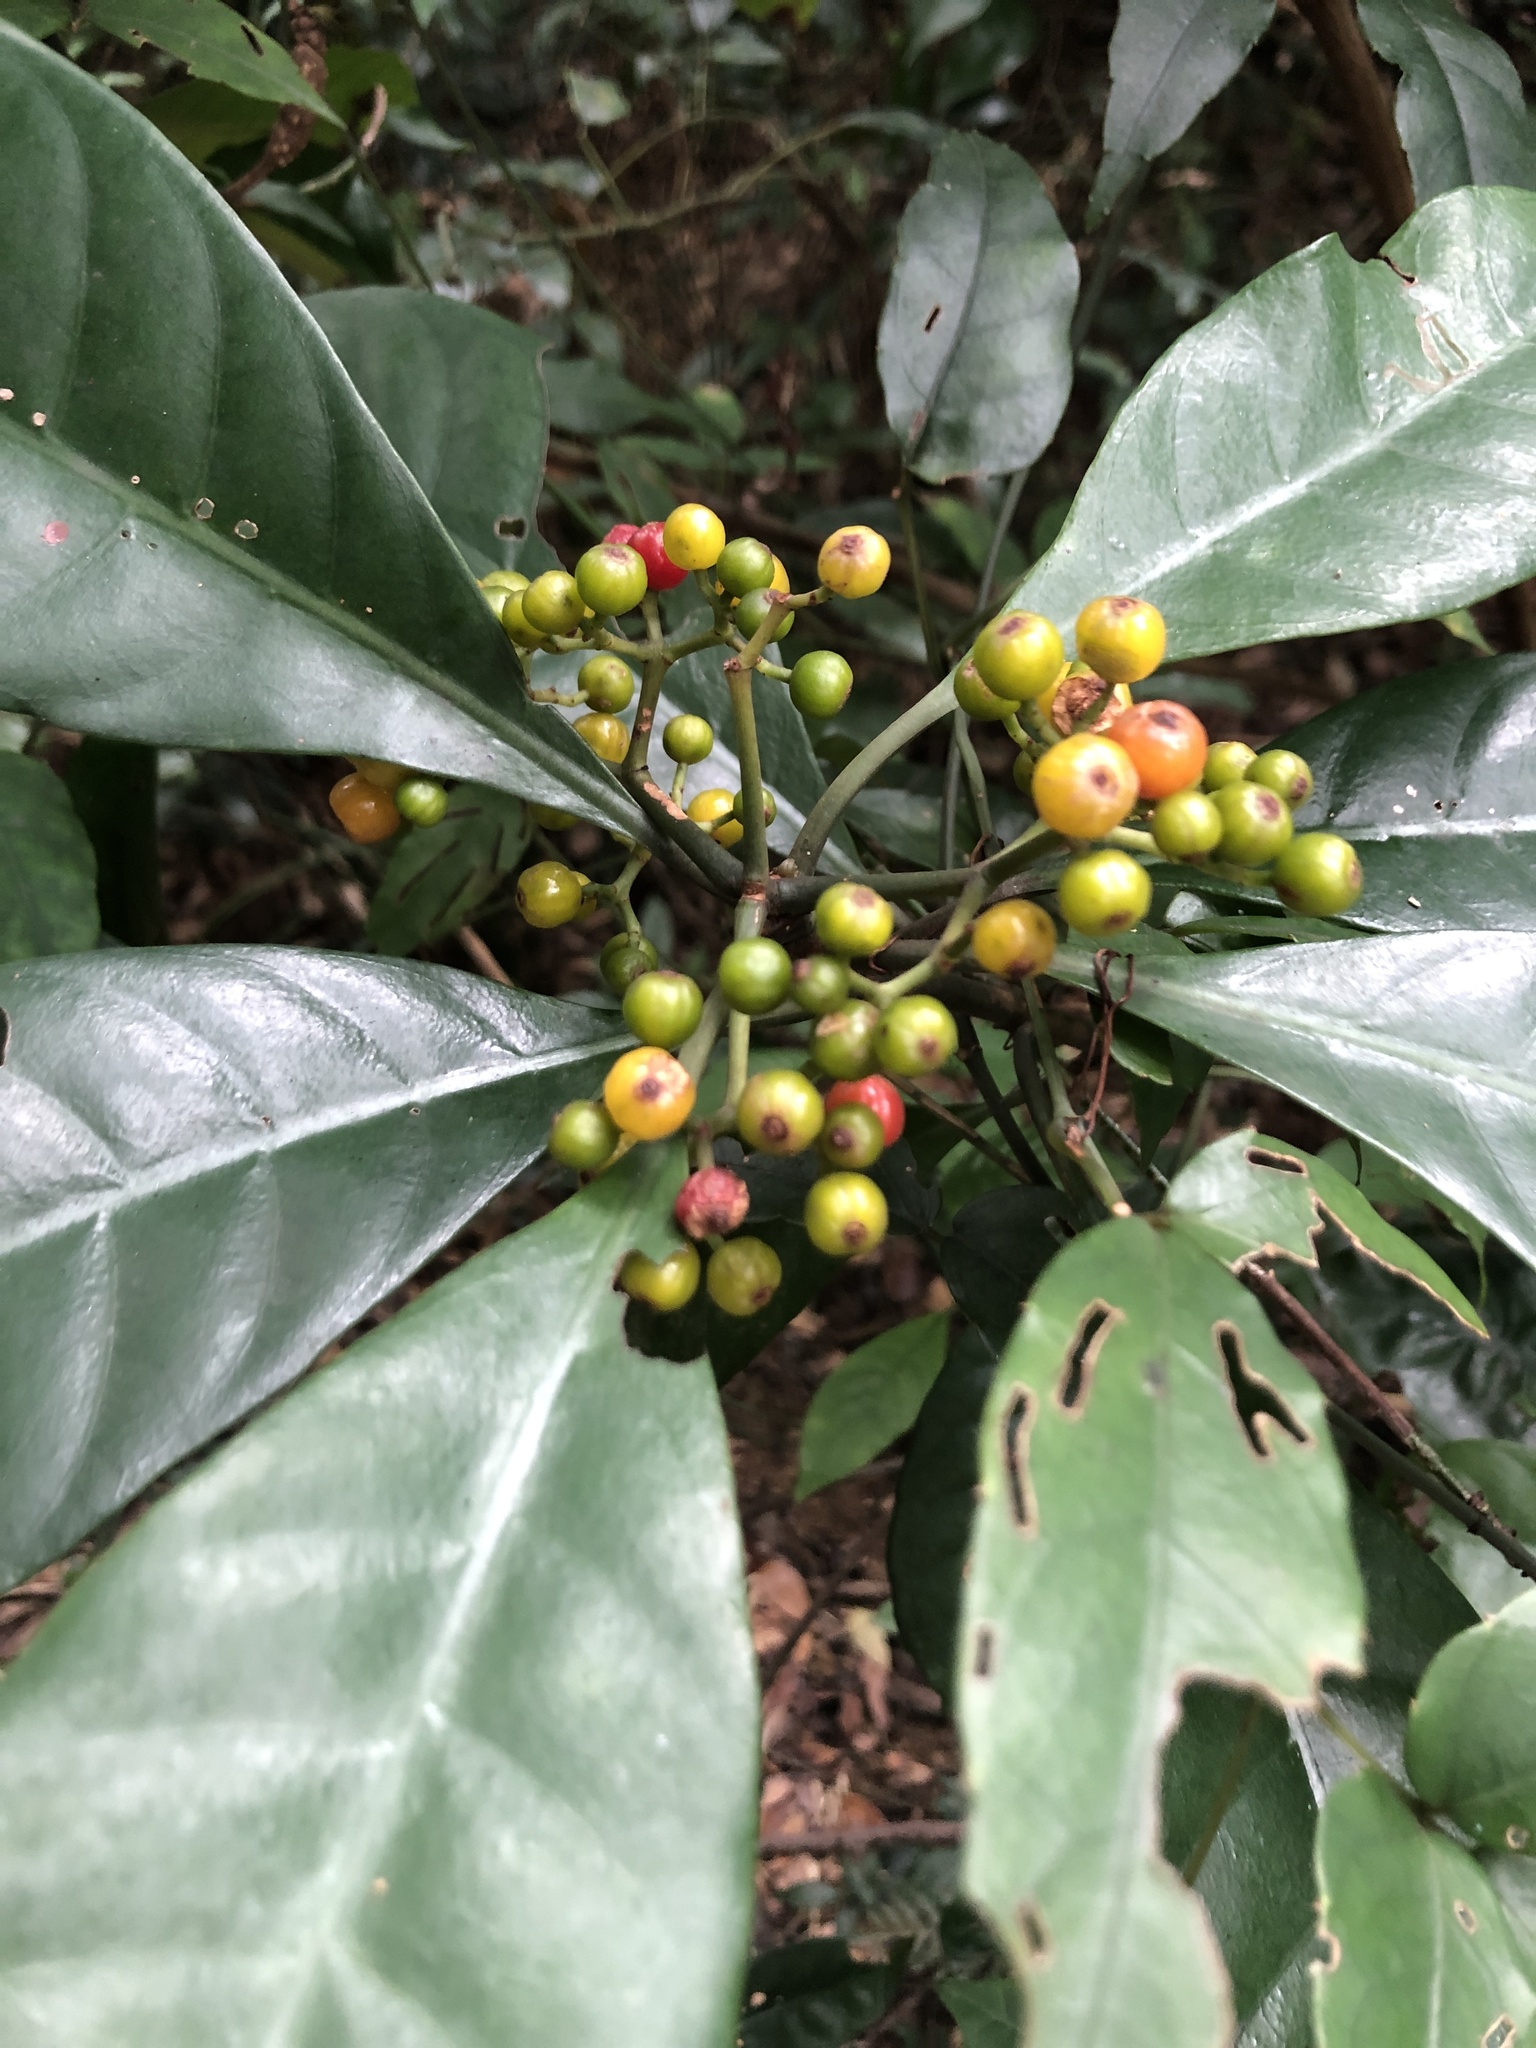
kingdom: Plantae
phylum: Tracheophyta
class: Magnoliopsida
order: Gentianales
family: Rubiaceae
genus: Psychotria
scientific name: Psychotria asiatica
